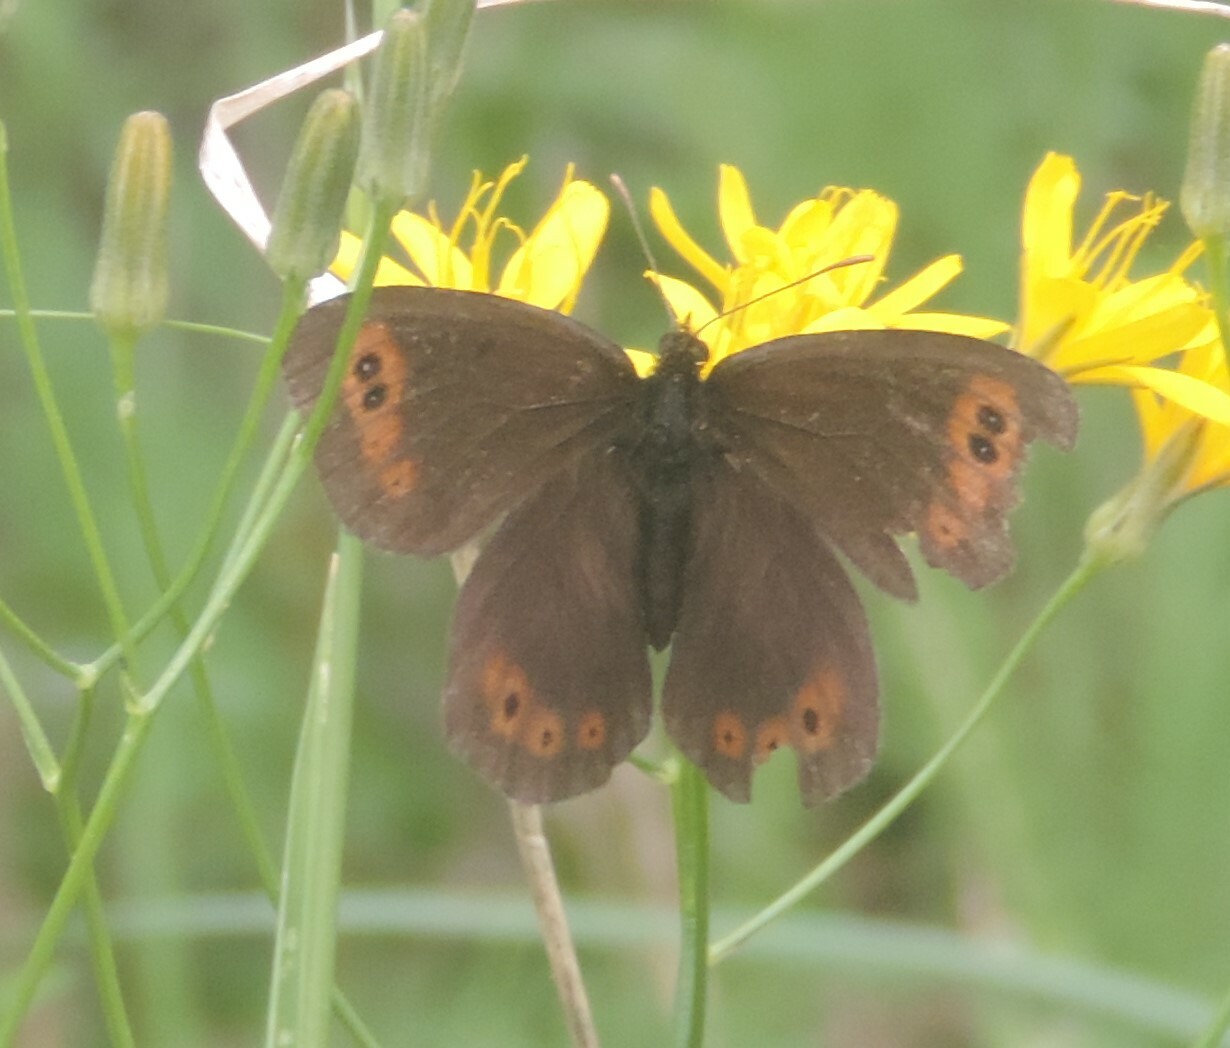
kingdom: Animalia
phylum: Arthropoda
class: Insecta
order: Lepidoptera
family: Nymphalidae
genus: Erebia
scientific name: Erebia epipsodea
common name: Common alpine
